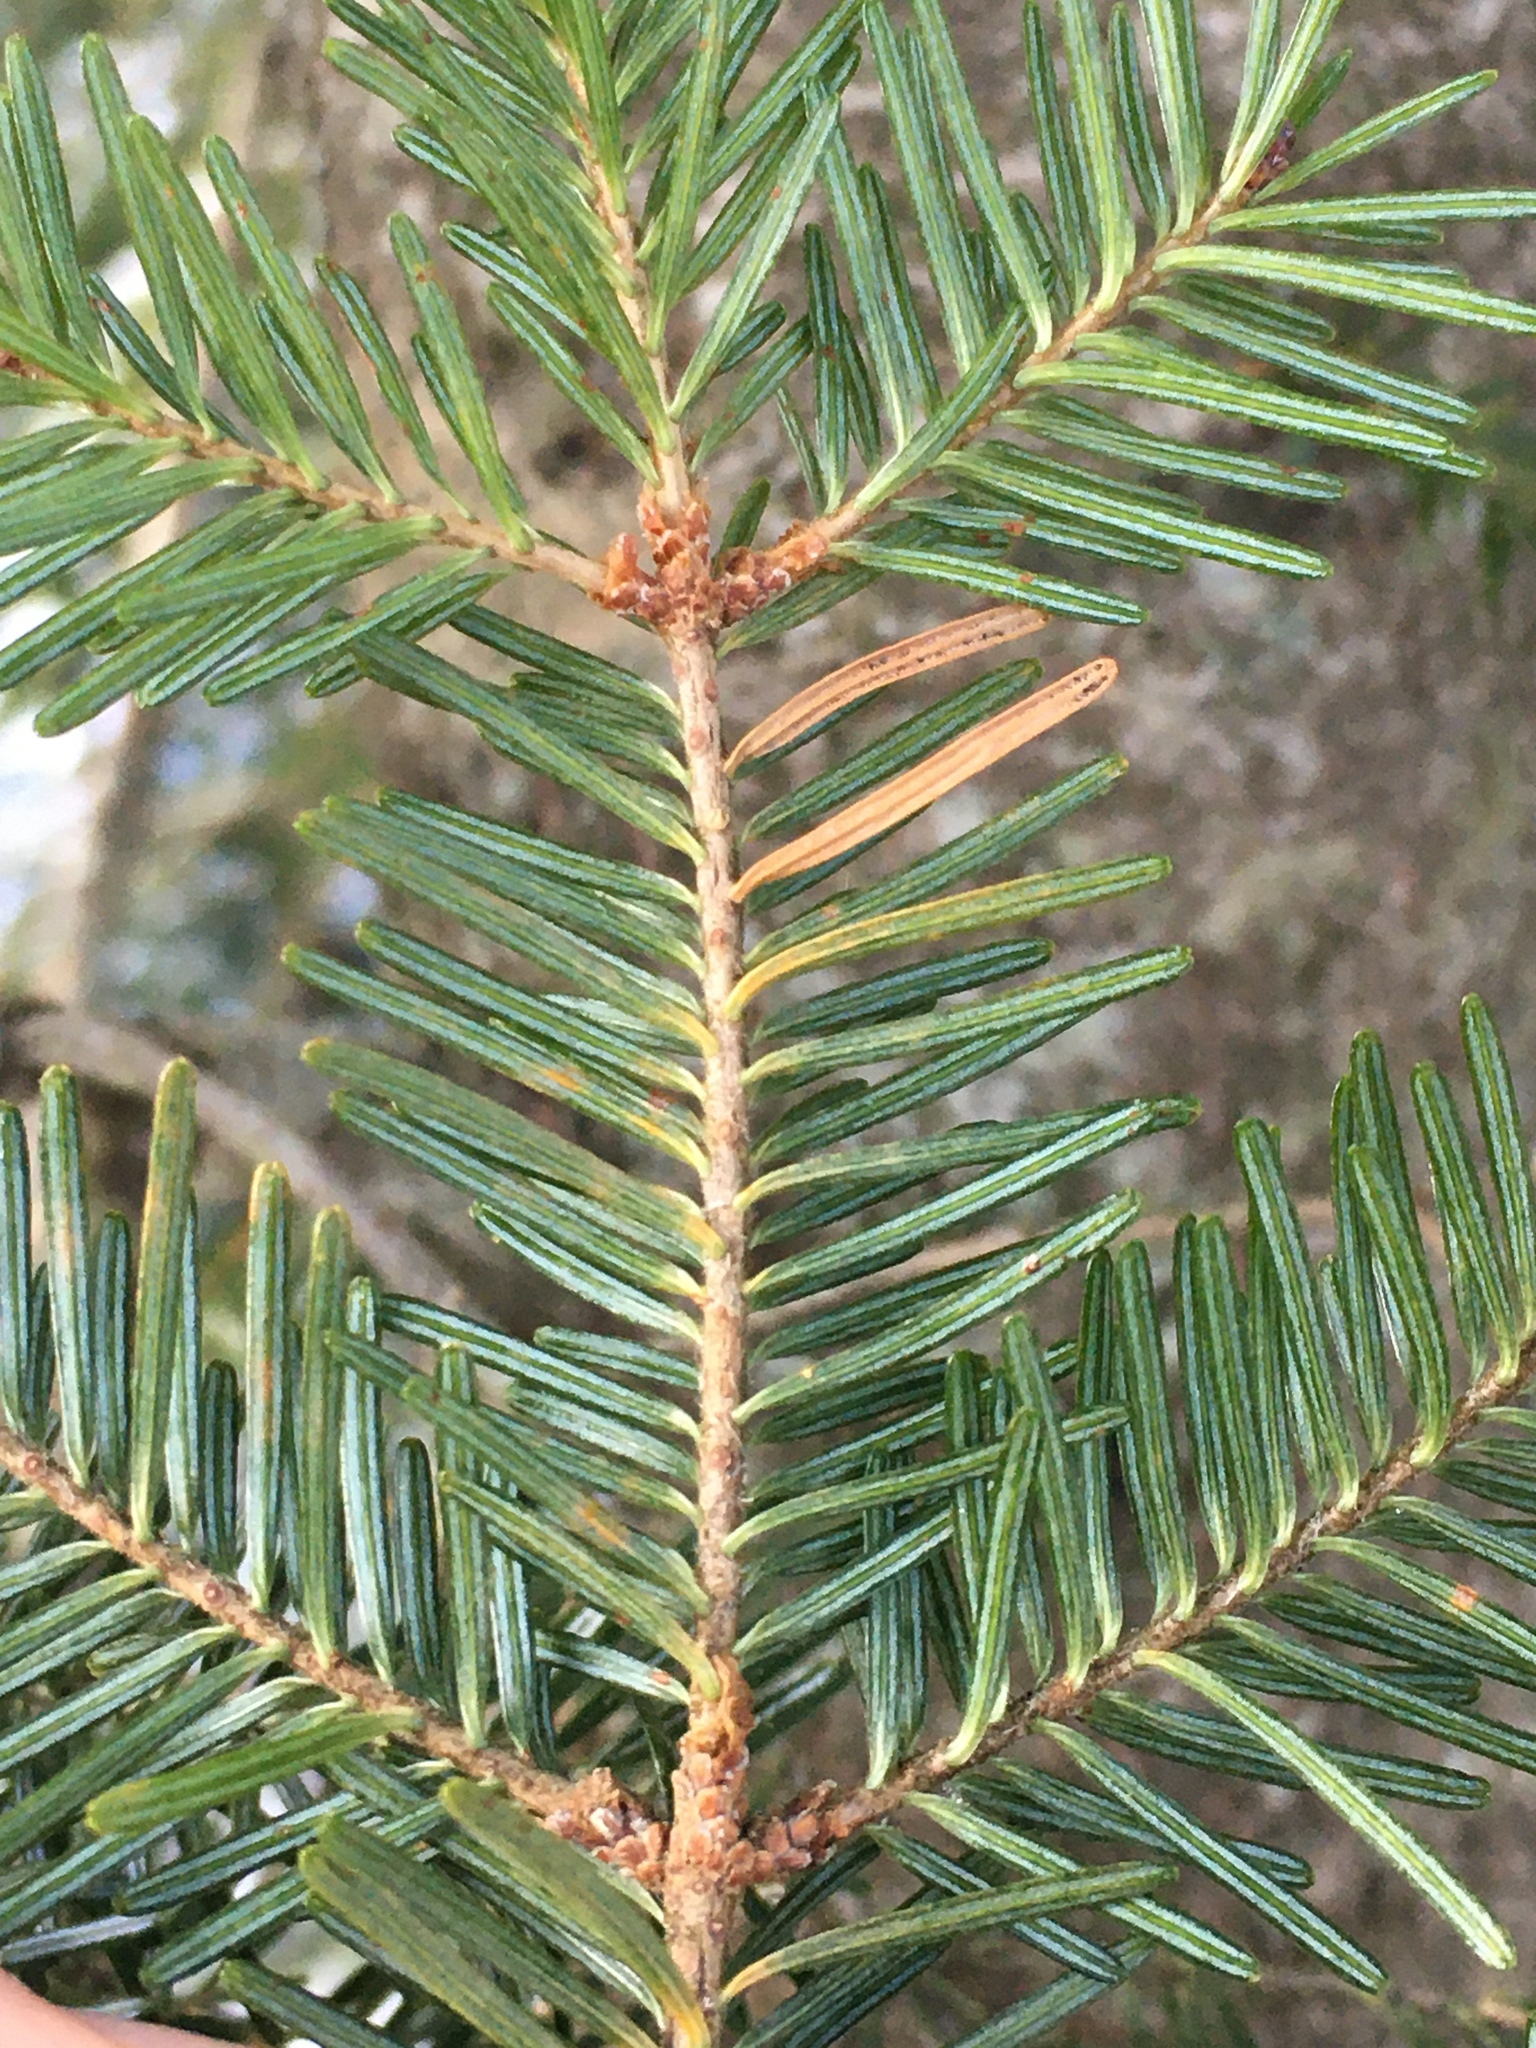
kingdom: Plantae
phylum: Tracheophyta
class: Pinopsida
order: Pinales
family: Pinaceae
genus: Abies
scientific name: Abies balsamea
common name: Balsam fir
